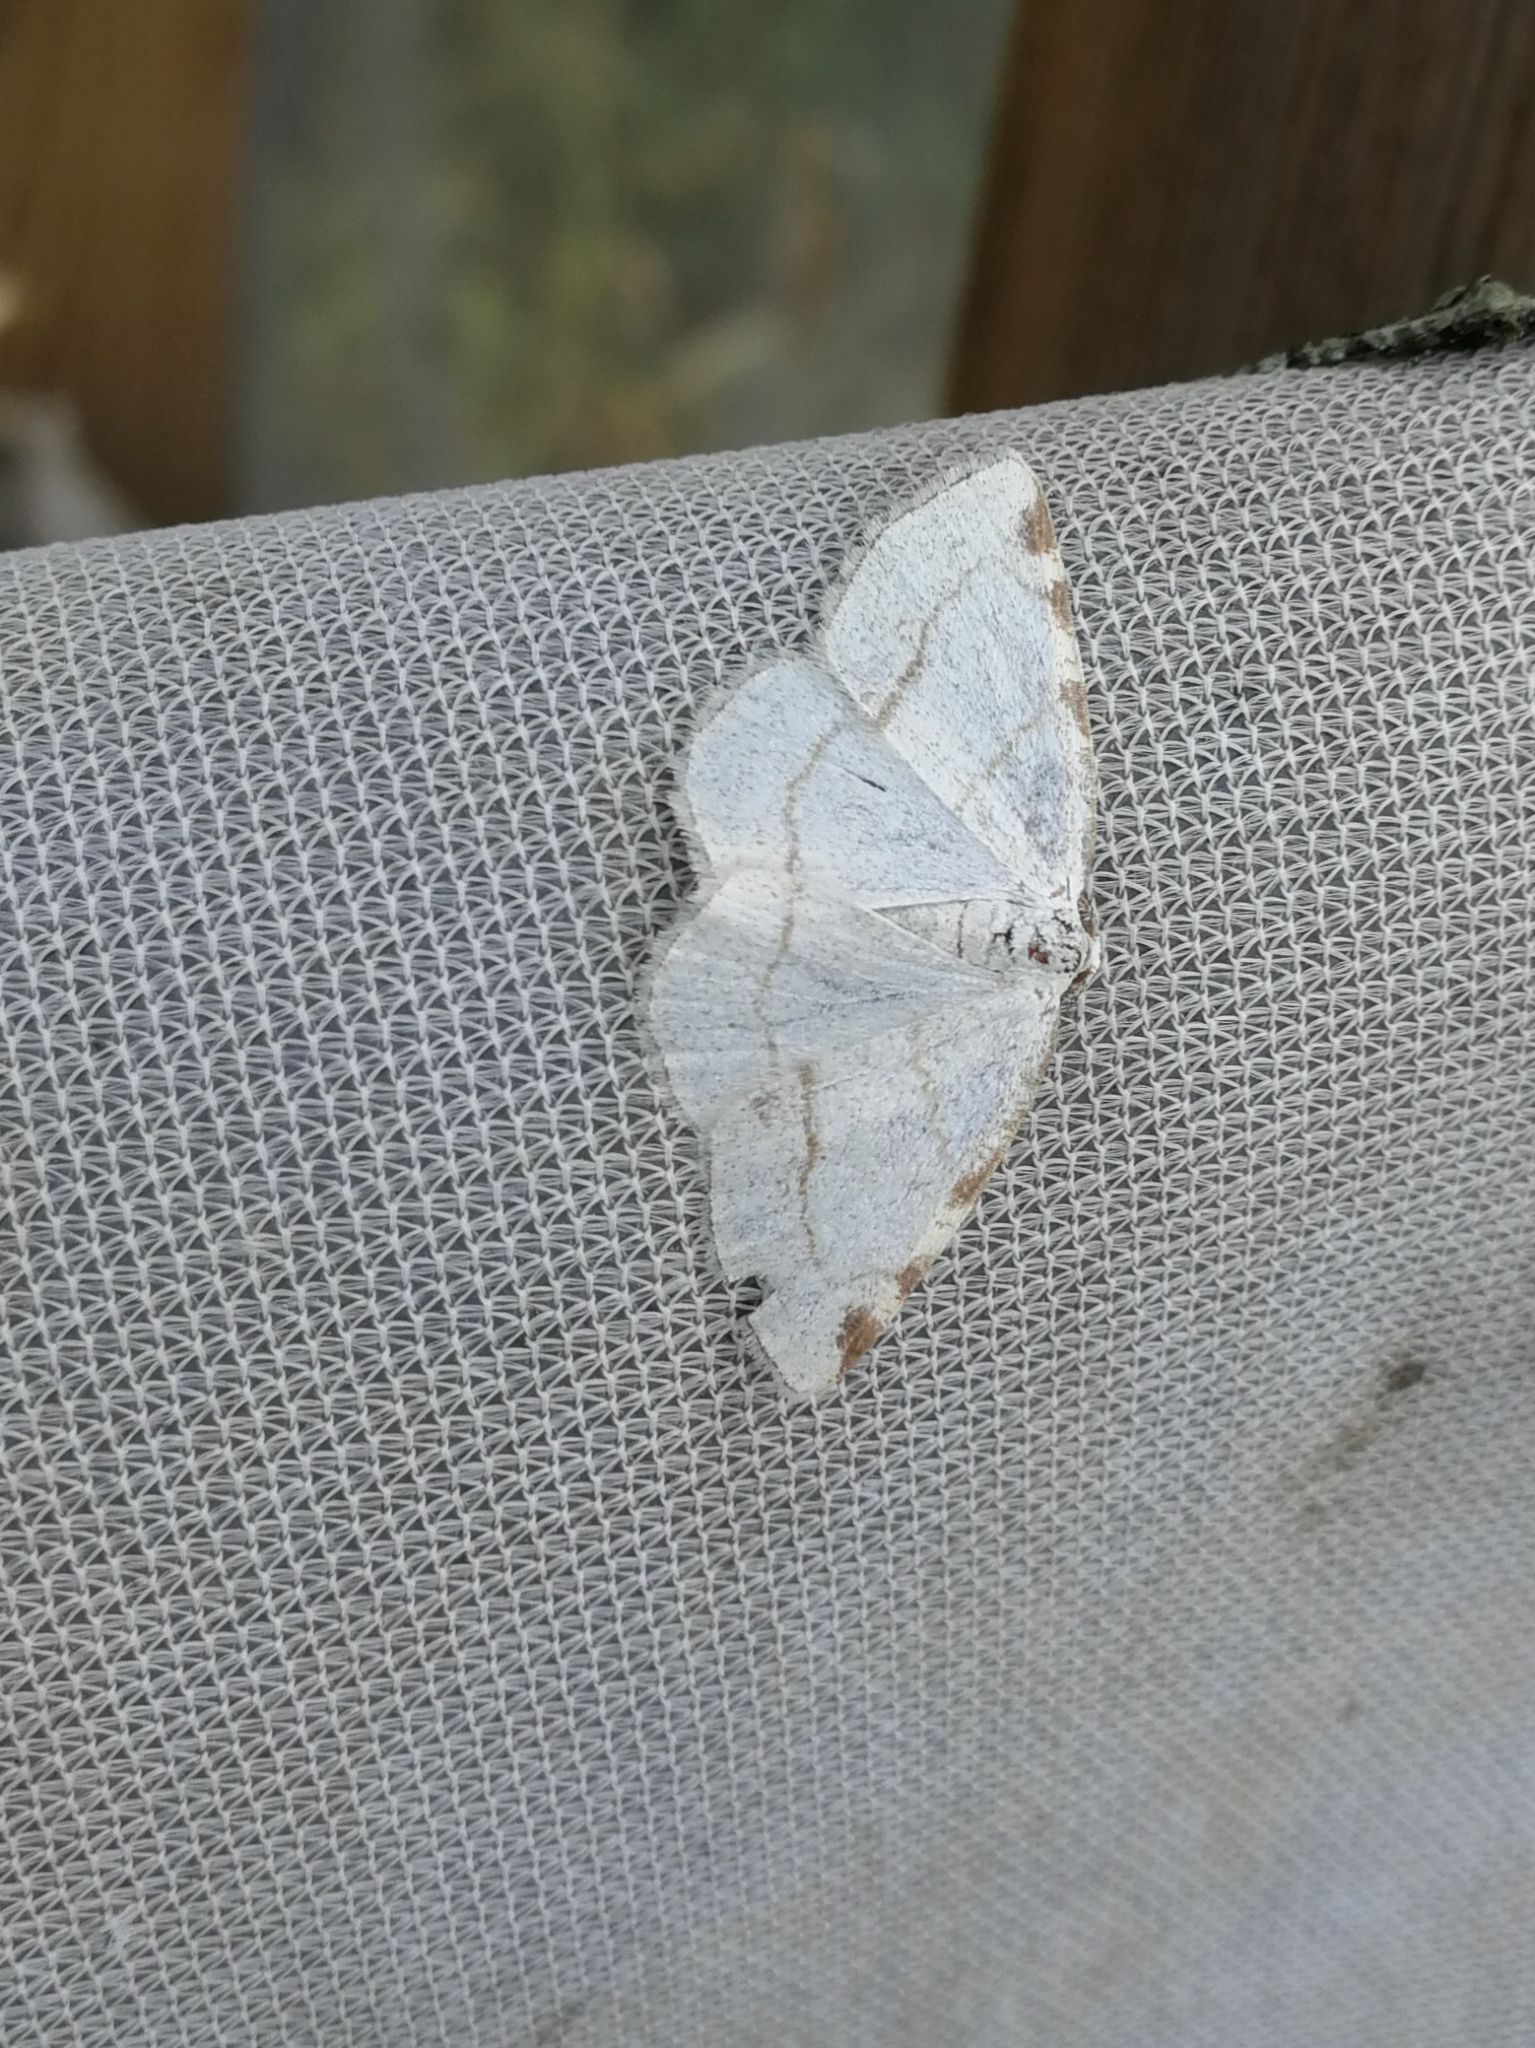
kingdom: Animalia
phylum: Arthropoda
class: Insecta
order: Lepidoptera
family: Geometridae
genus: Stegania
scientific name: Stegania trimaculata
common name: Dorset cream wave
